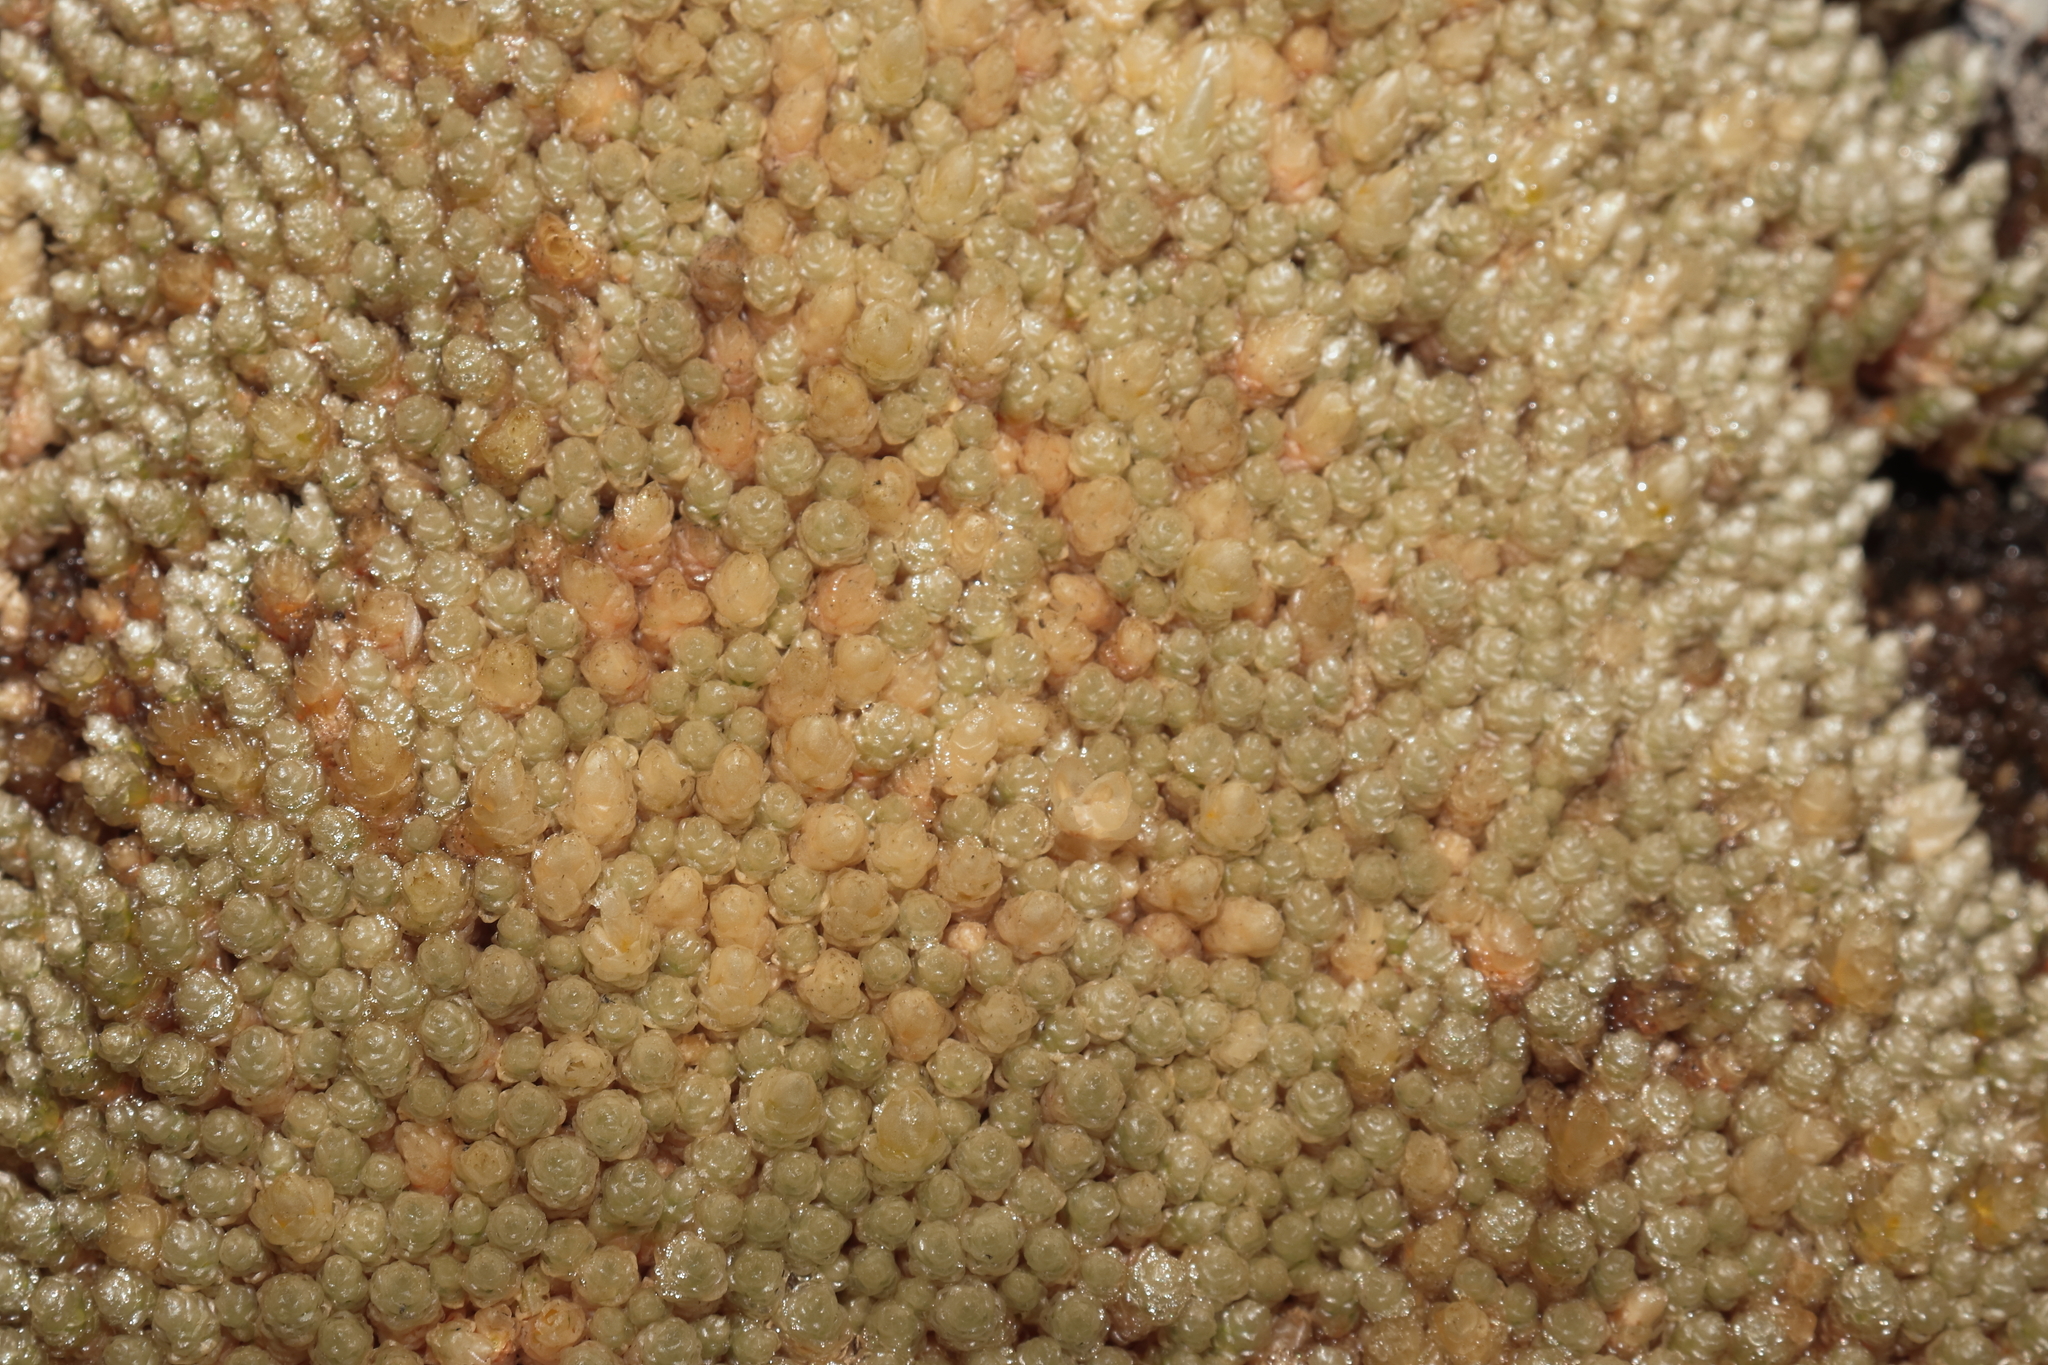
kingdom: Plantae
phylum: Tracheophyta
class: Magnoliopsida
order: Caryophyllales
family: Caryophyllaceae
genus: Pycnophyllum
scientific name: Pycnophyllum huascaranum
